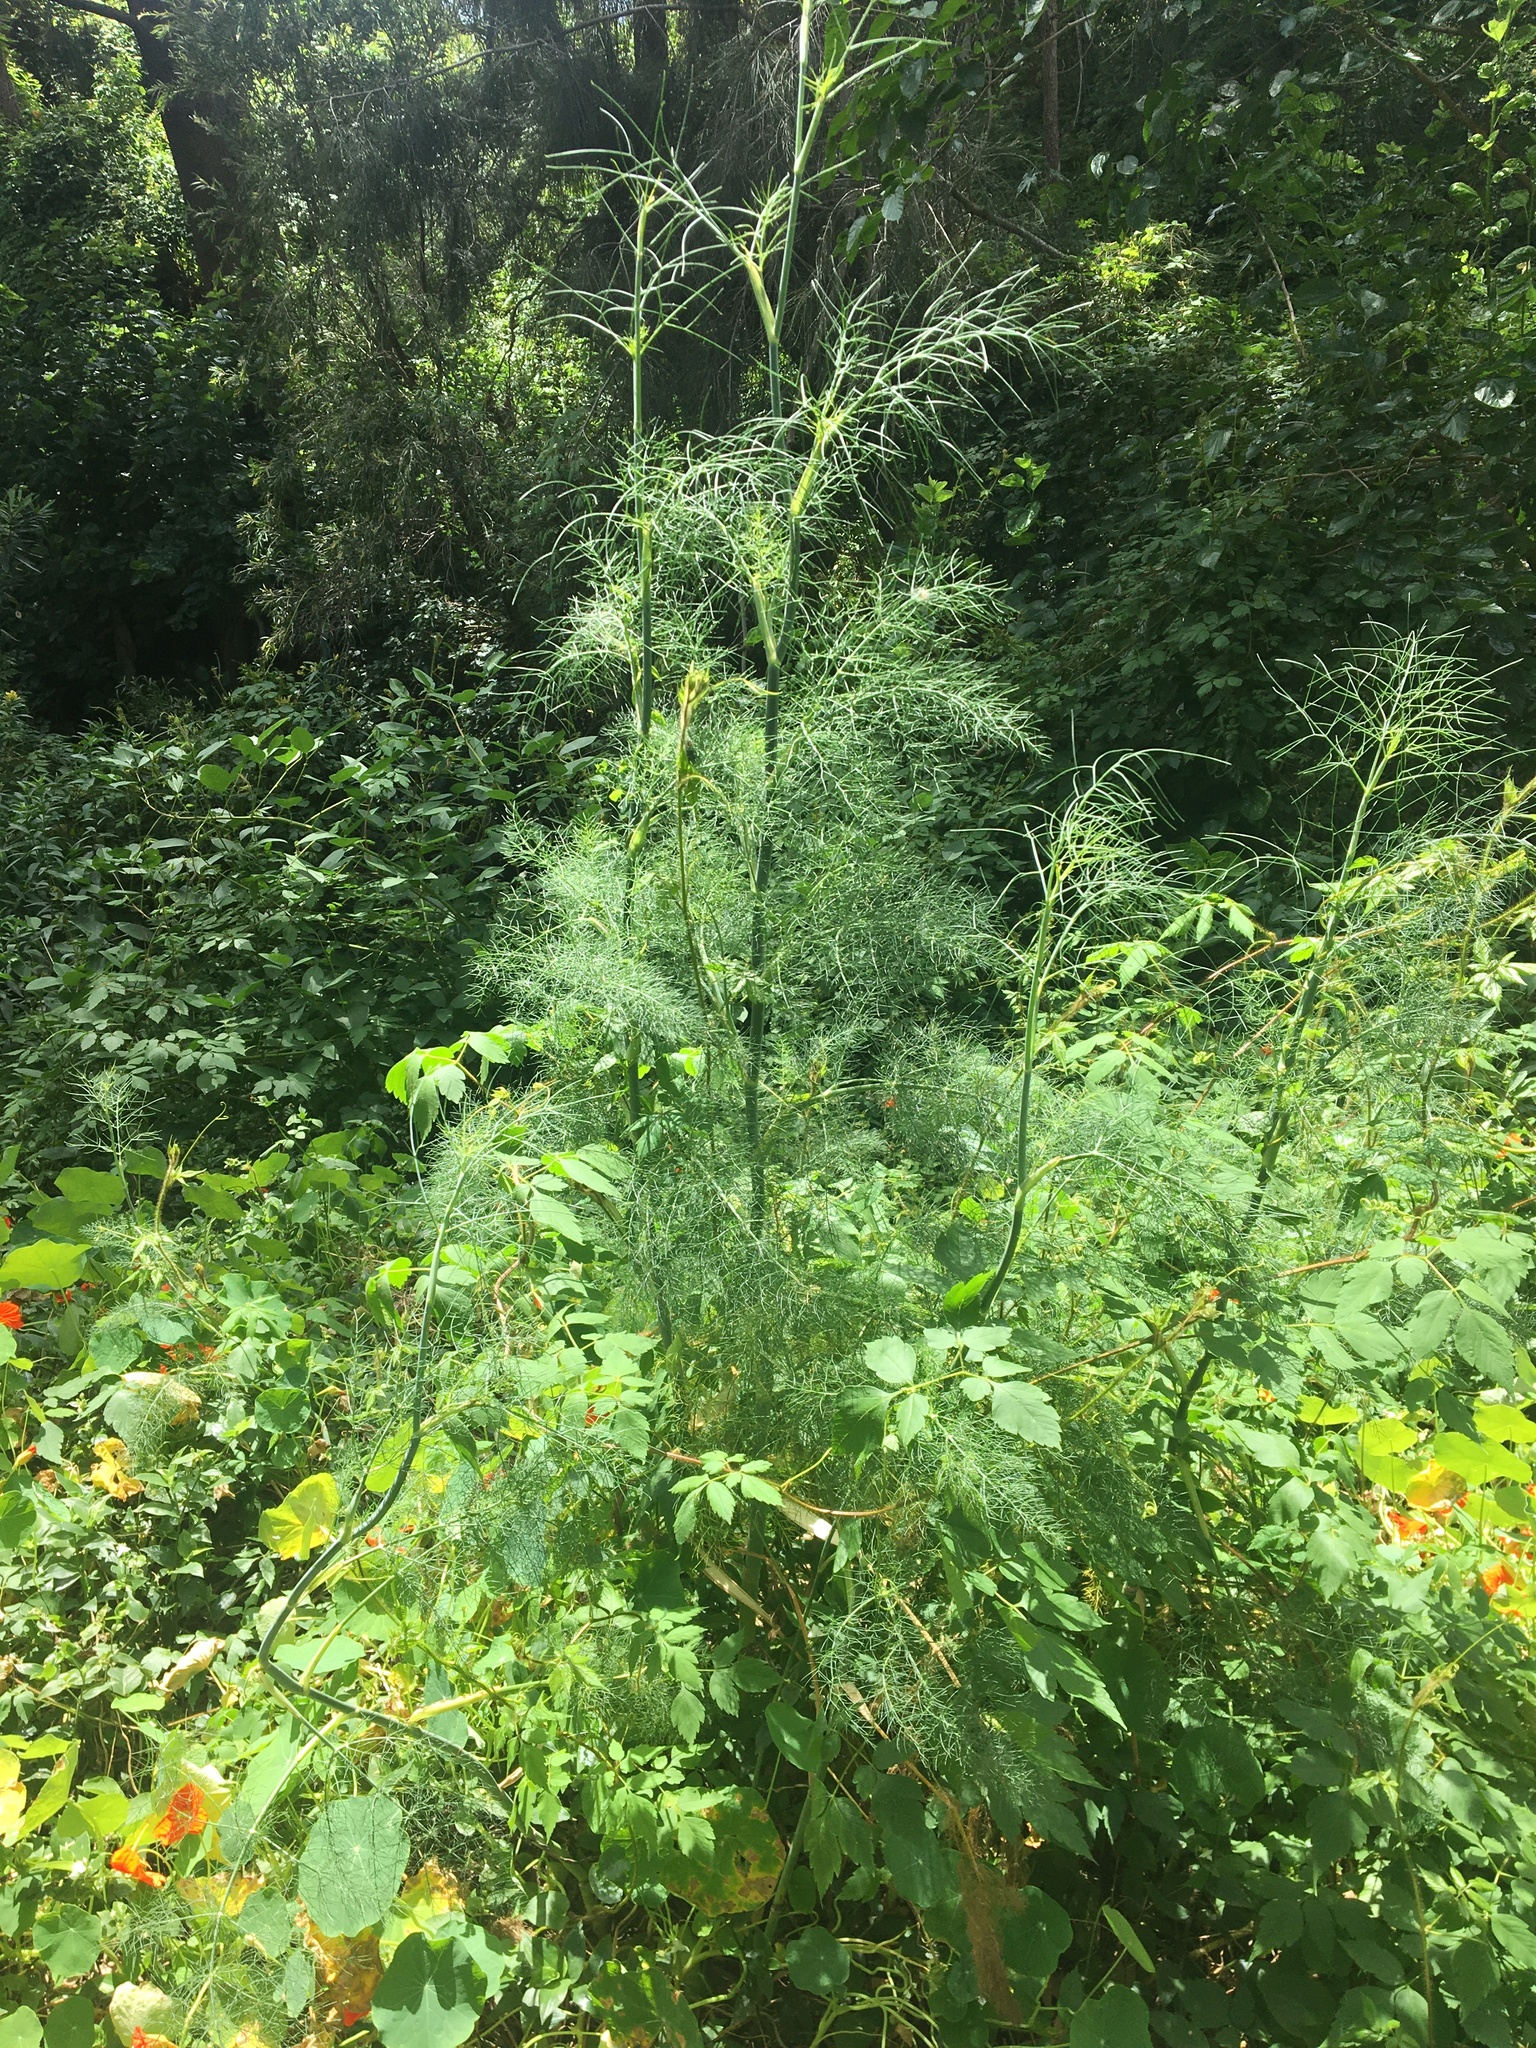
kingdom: Plantae
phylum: Tracheophyta
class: Magnoliopsida
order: Apiales
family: Apiaceae
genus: Foeniculum
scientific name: Foeniculum vulgare
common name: Fennel
